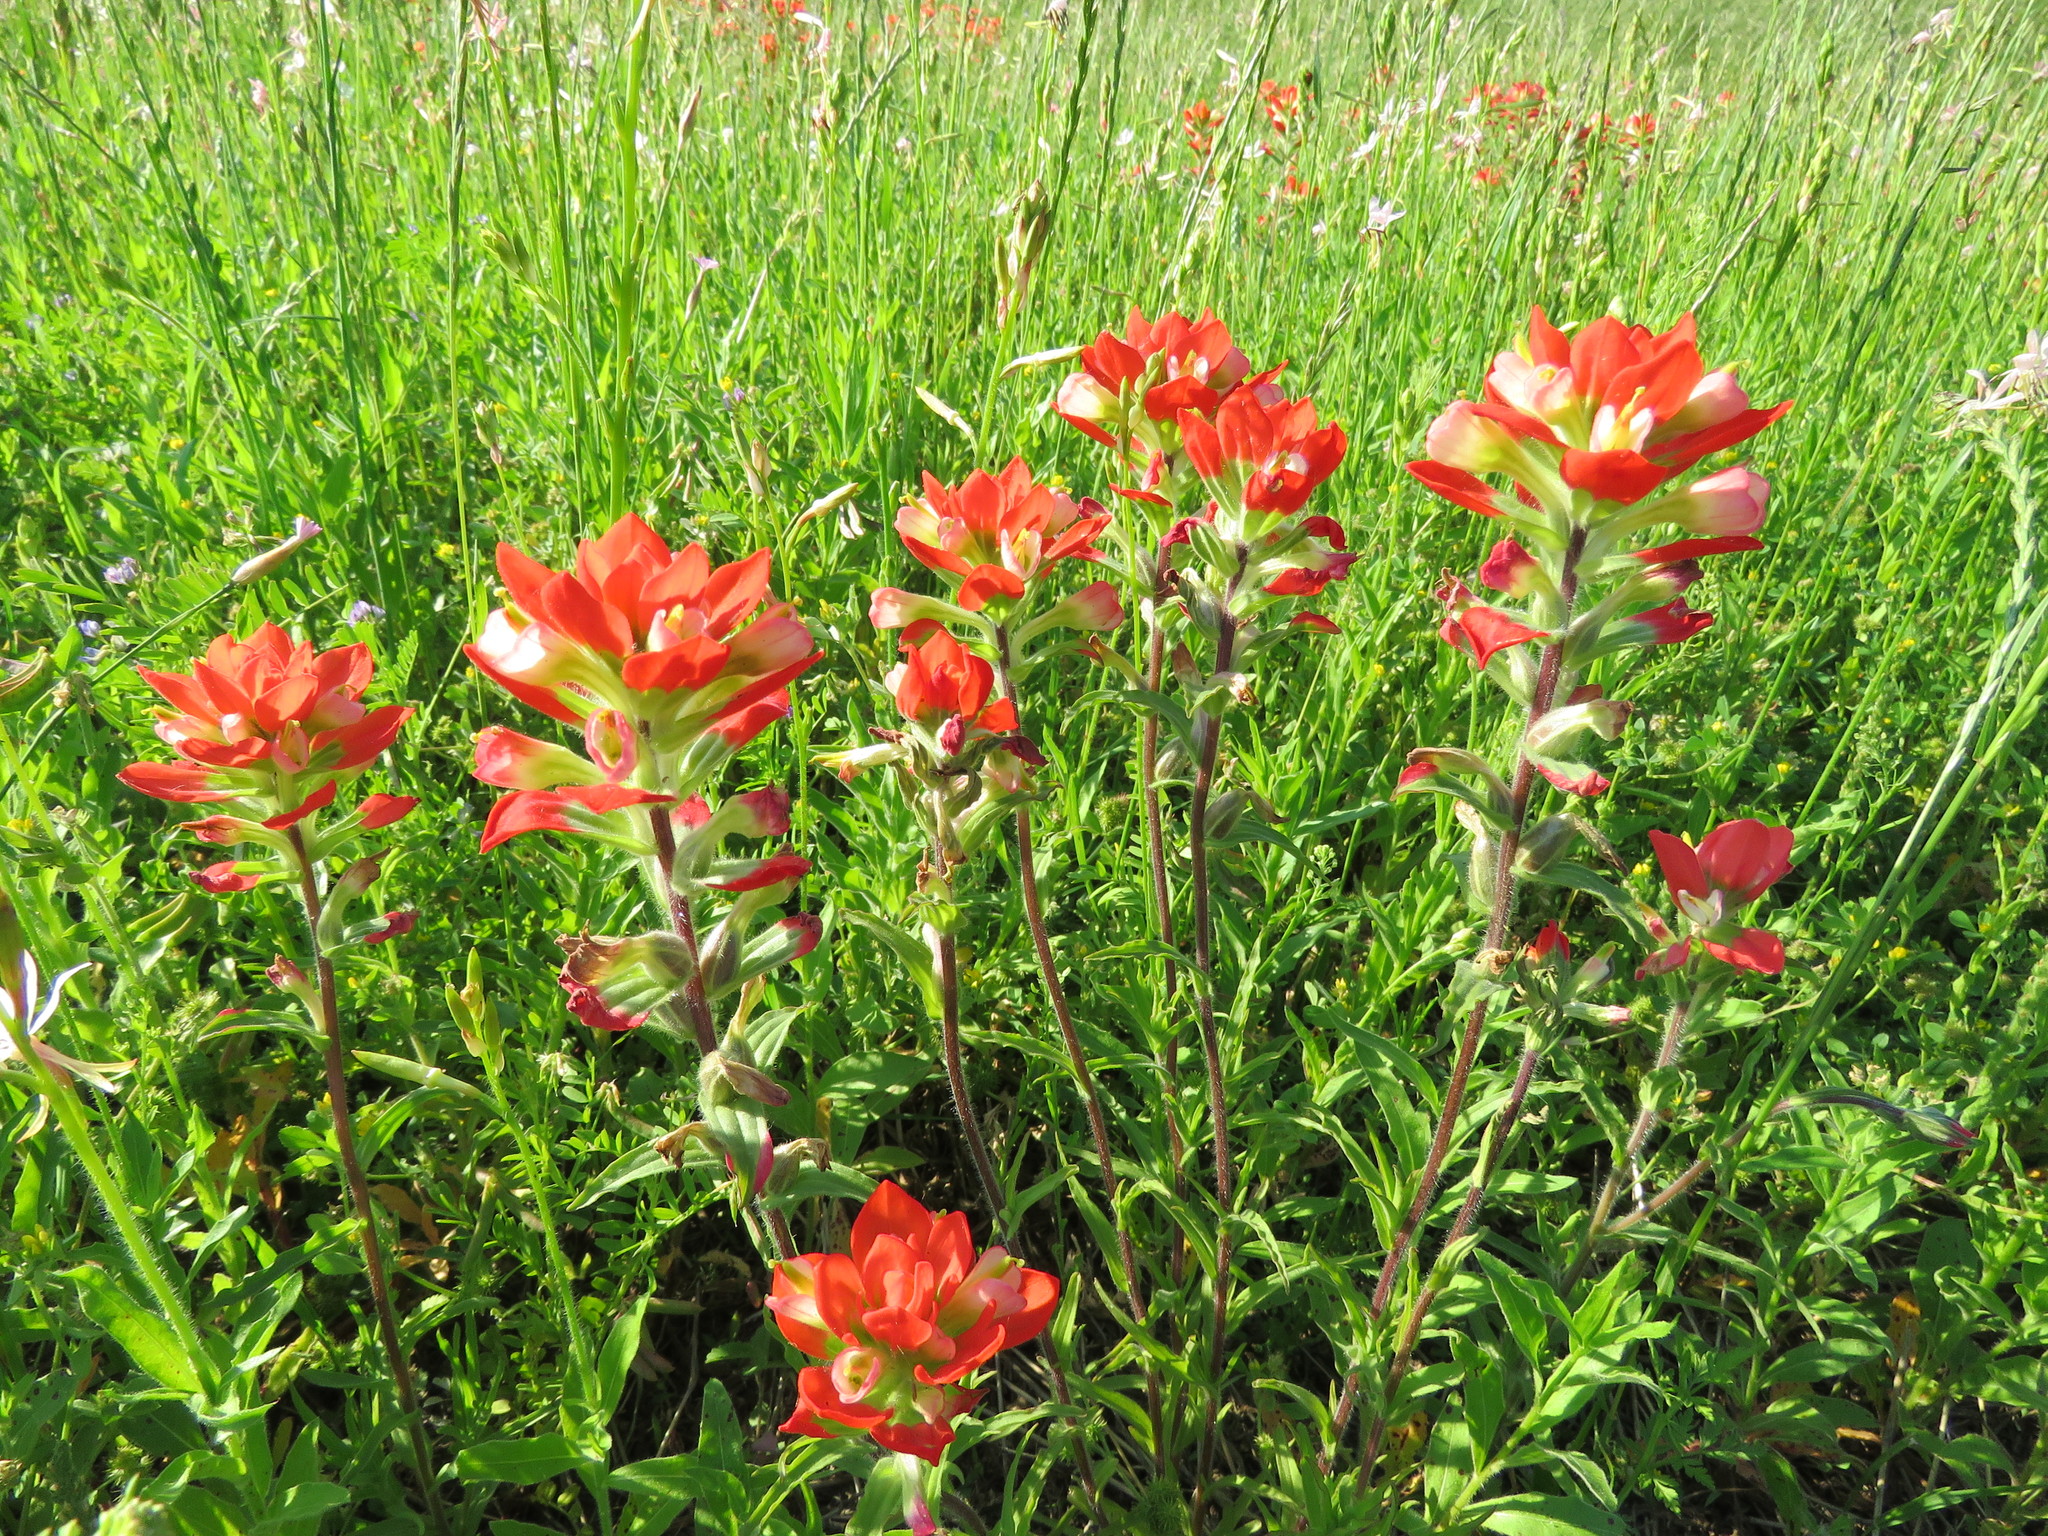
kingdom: Plantae
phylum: Tracheophyta
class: Magnoliopsida
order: Lamiales
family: Orobanchaceae
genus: Castilleja
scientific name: Castilleja indivisa
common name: Texas paintbrush
